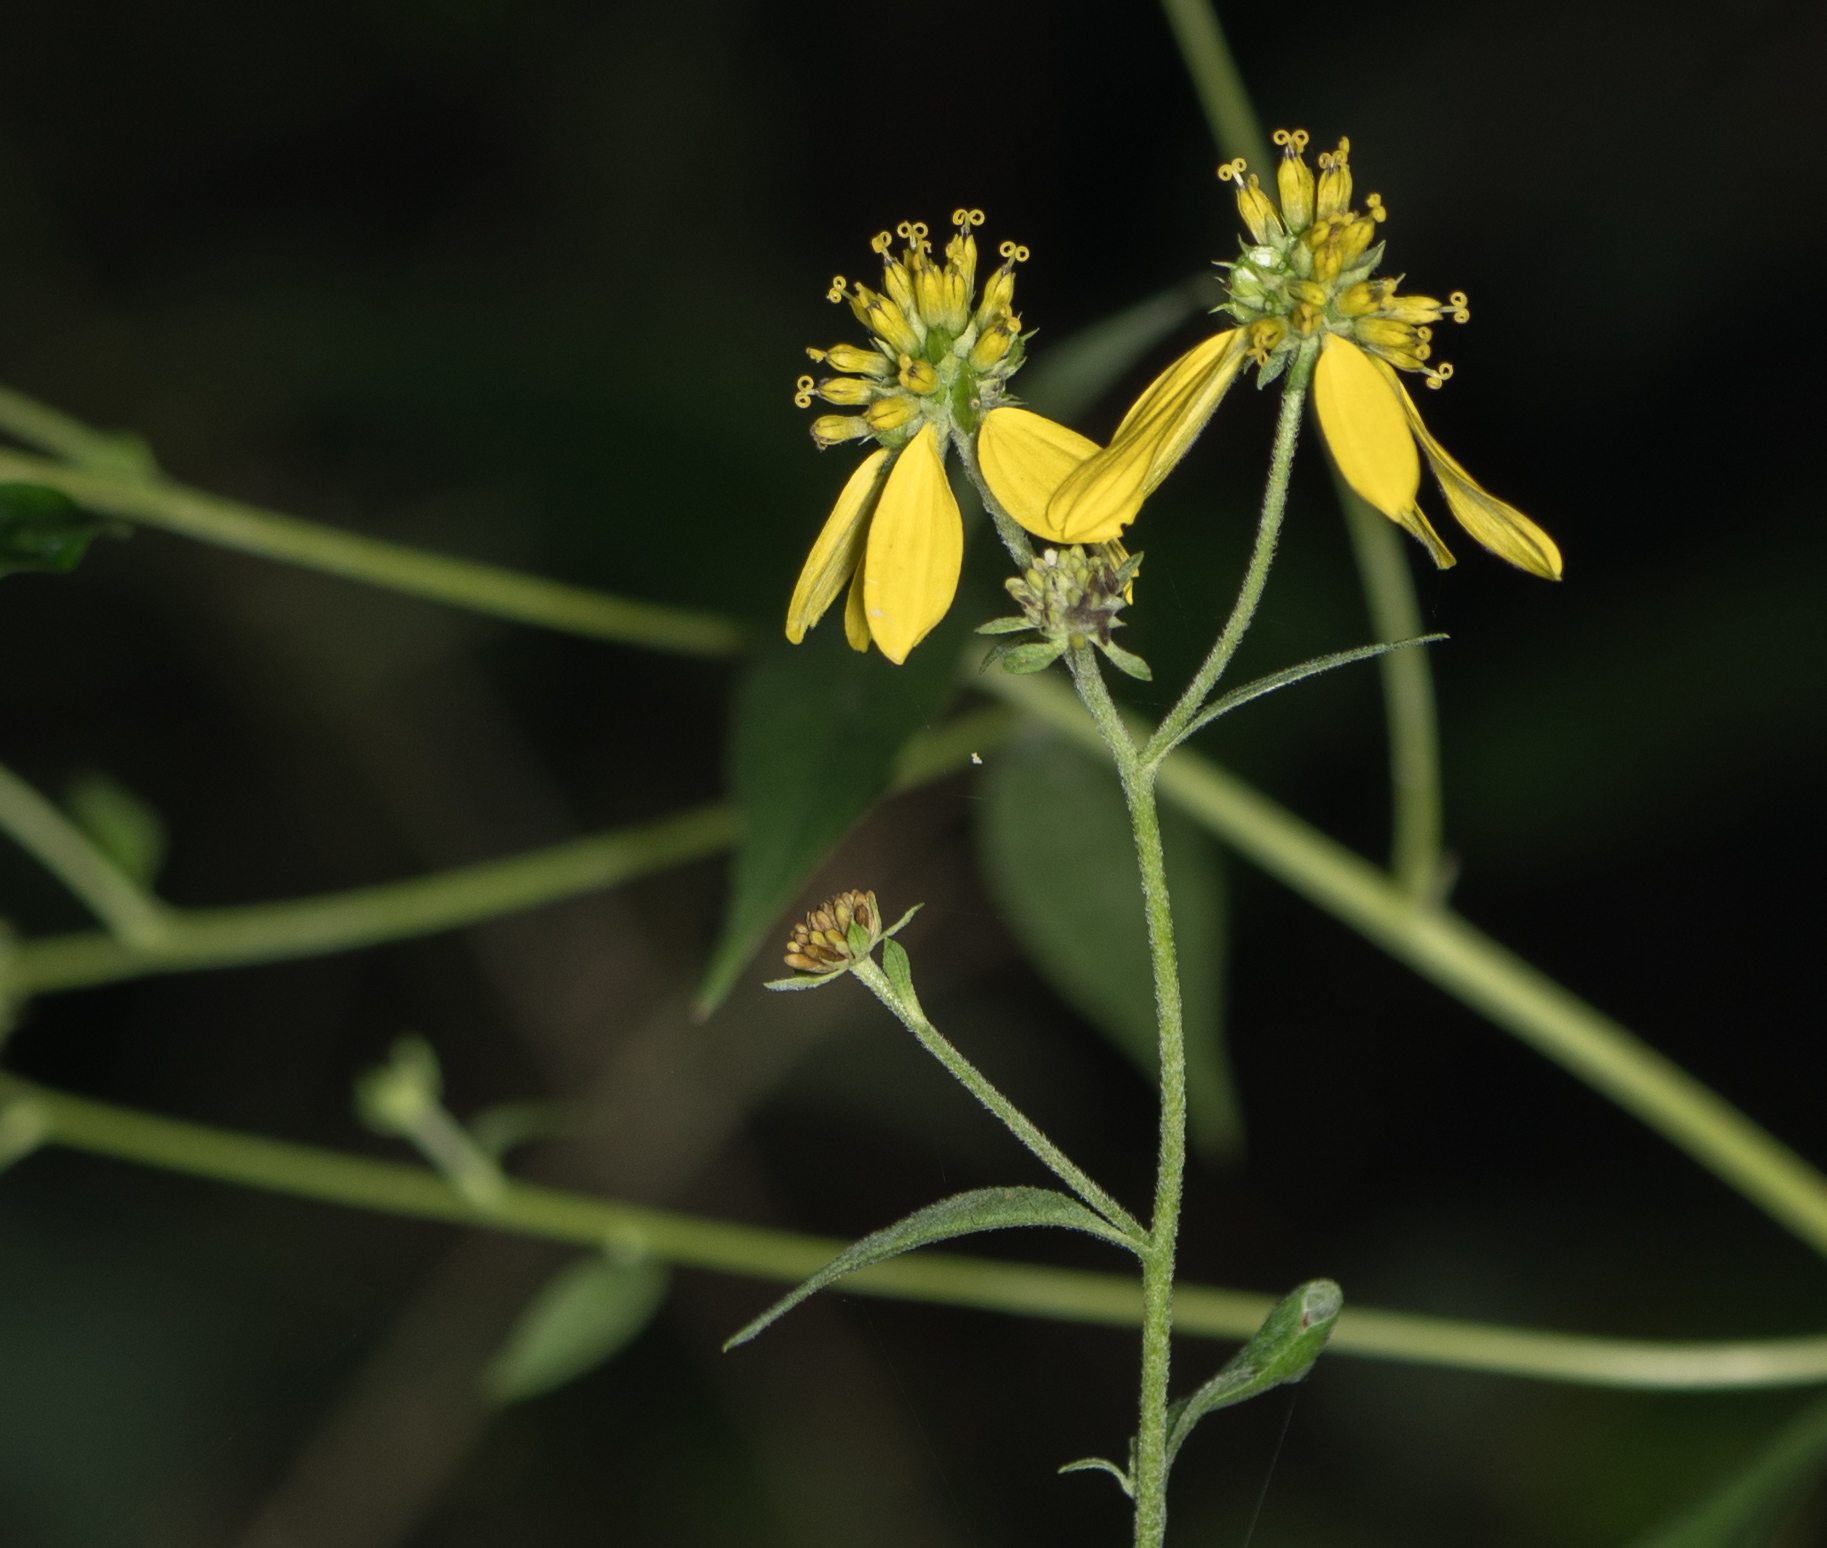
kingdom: Plantae
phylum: Tracheophyta
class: Magnoliopsida
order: Asterales
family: Asteraceae
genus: Verbesina
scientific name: Verbesina alternifolia
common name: Wingstem
